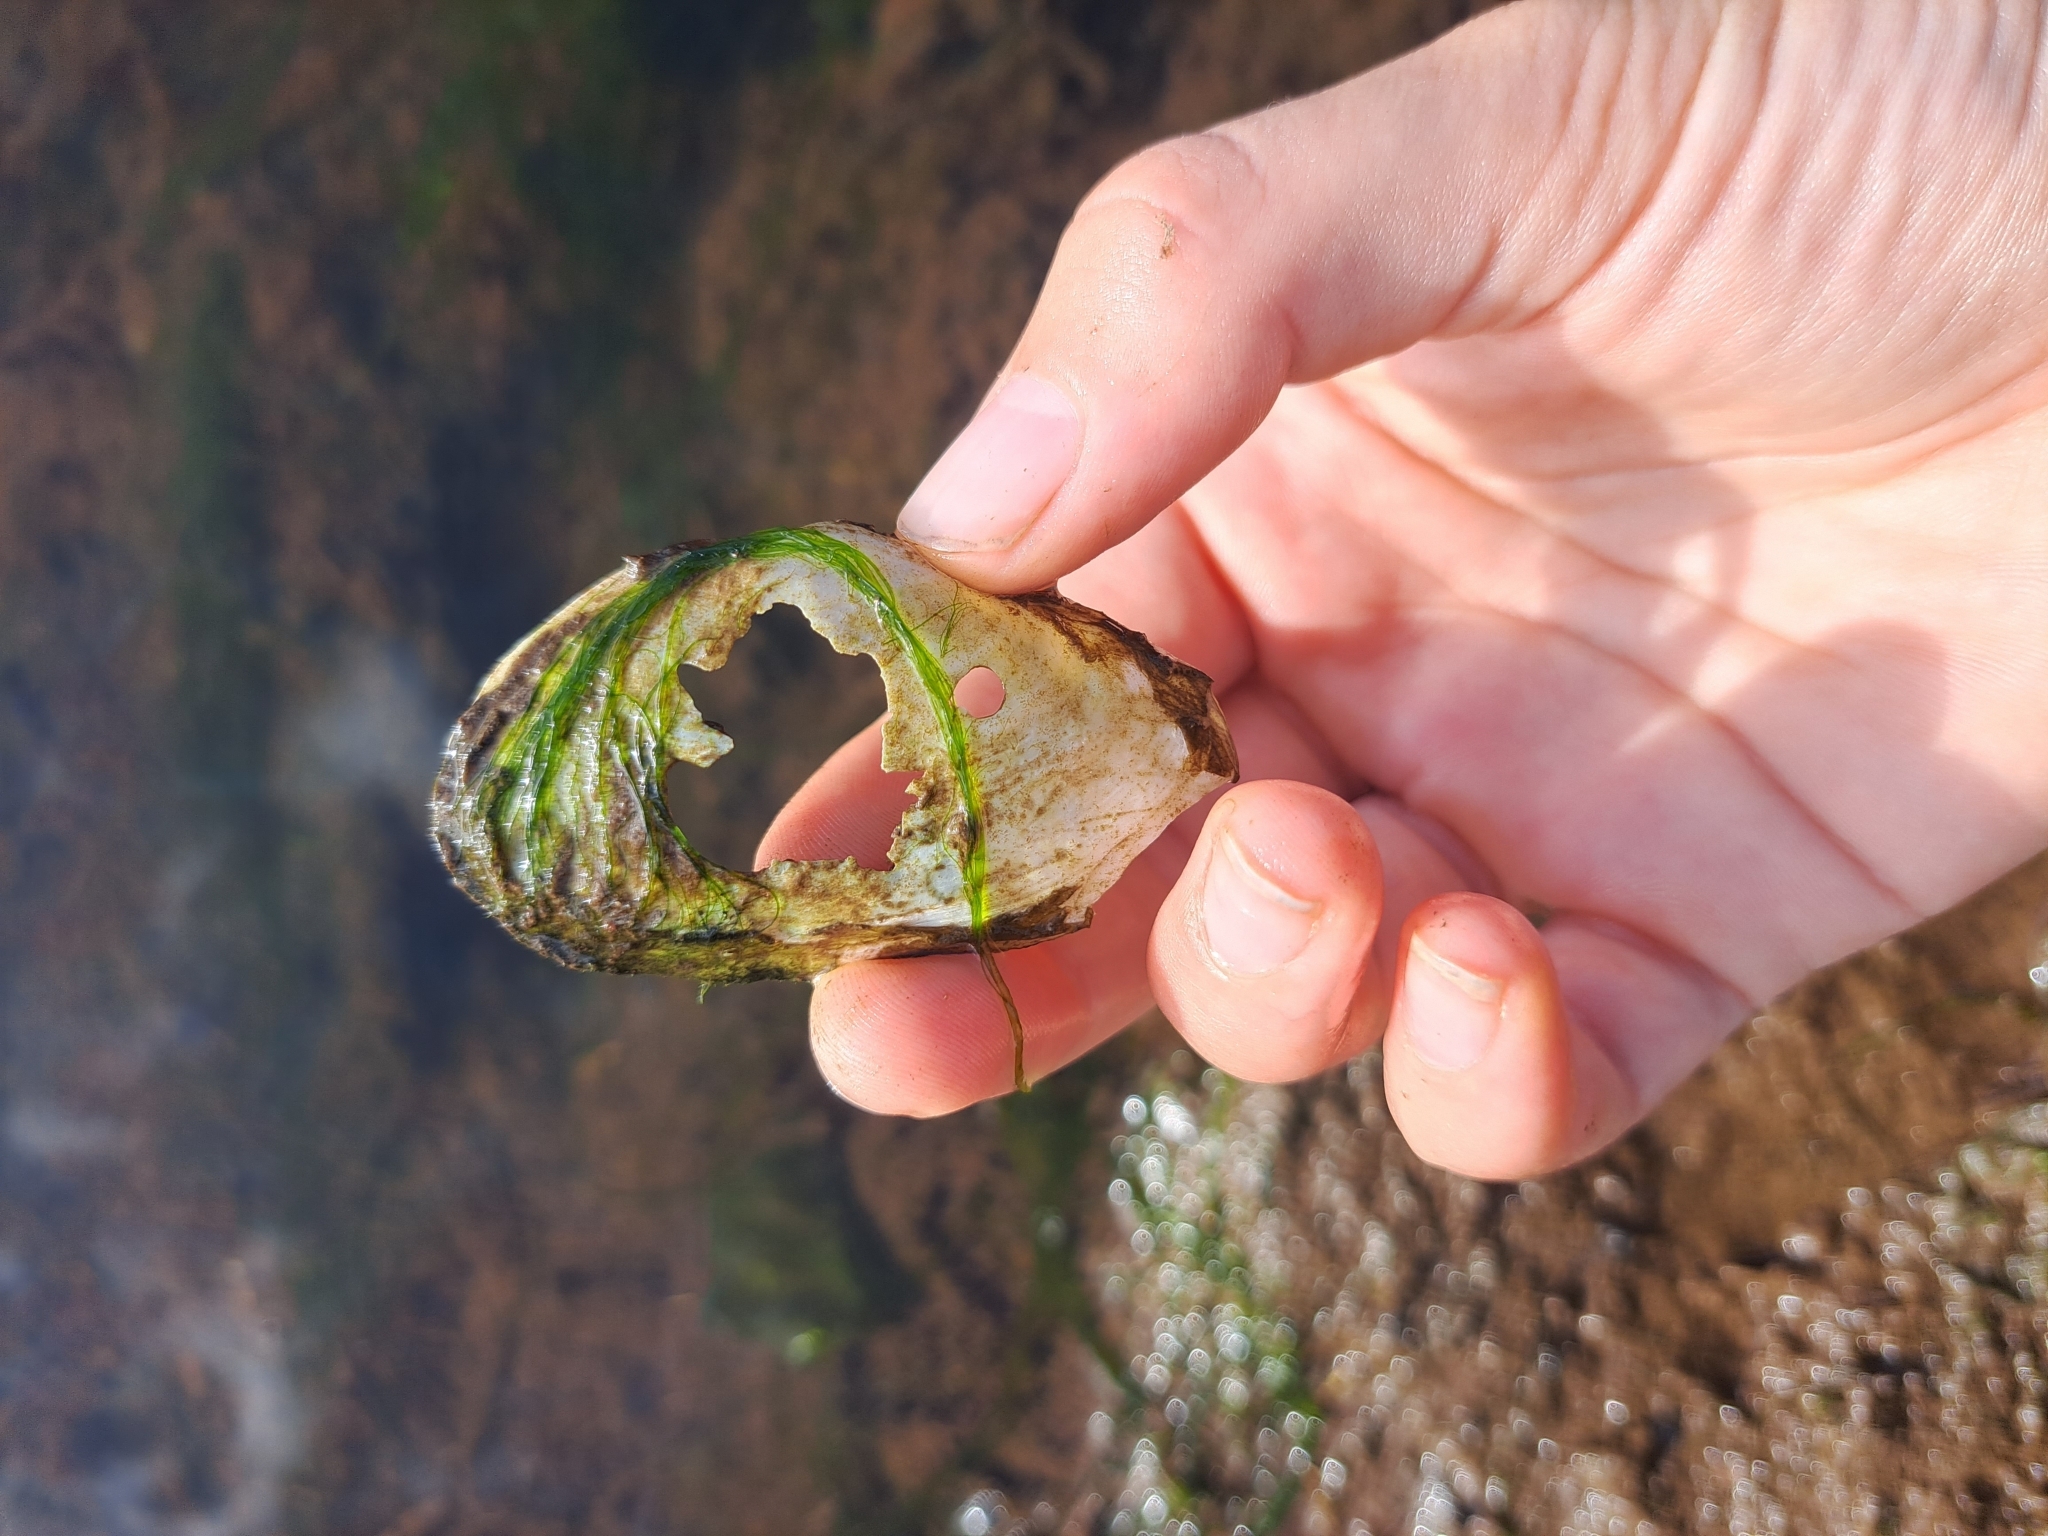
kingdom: Animalia
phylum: Mollusca
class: Bivalvia
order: Myida
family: Myidae
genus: Mya
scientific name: Mya arenaria
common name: Soft-shelled clam
